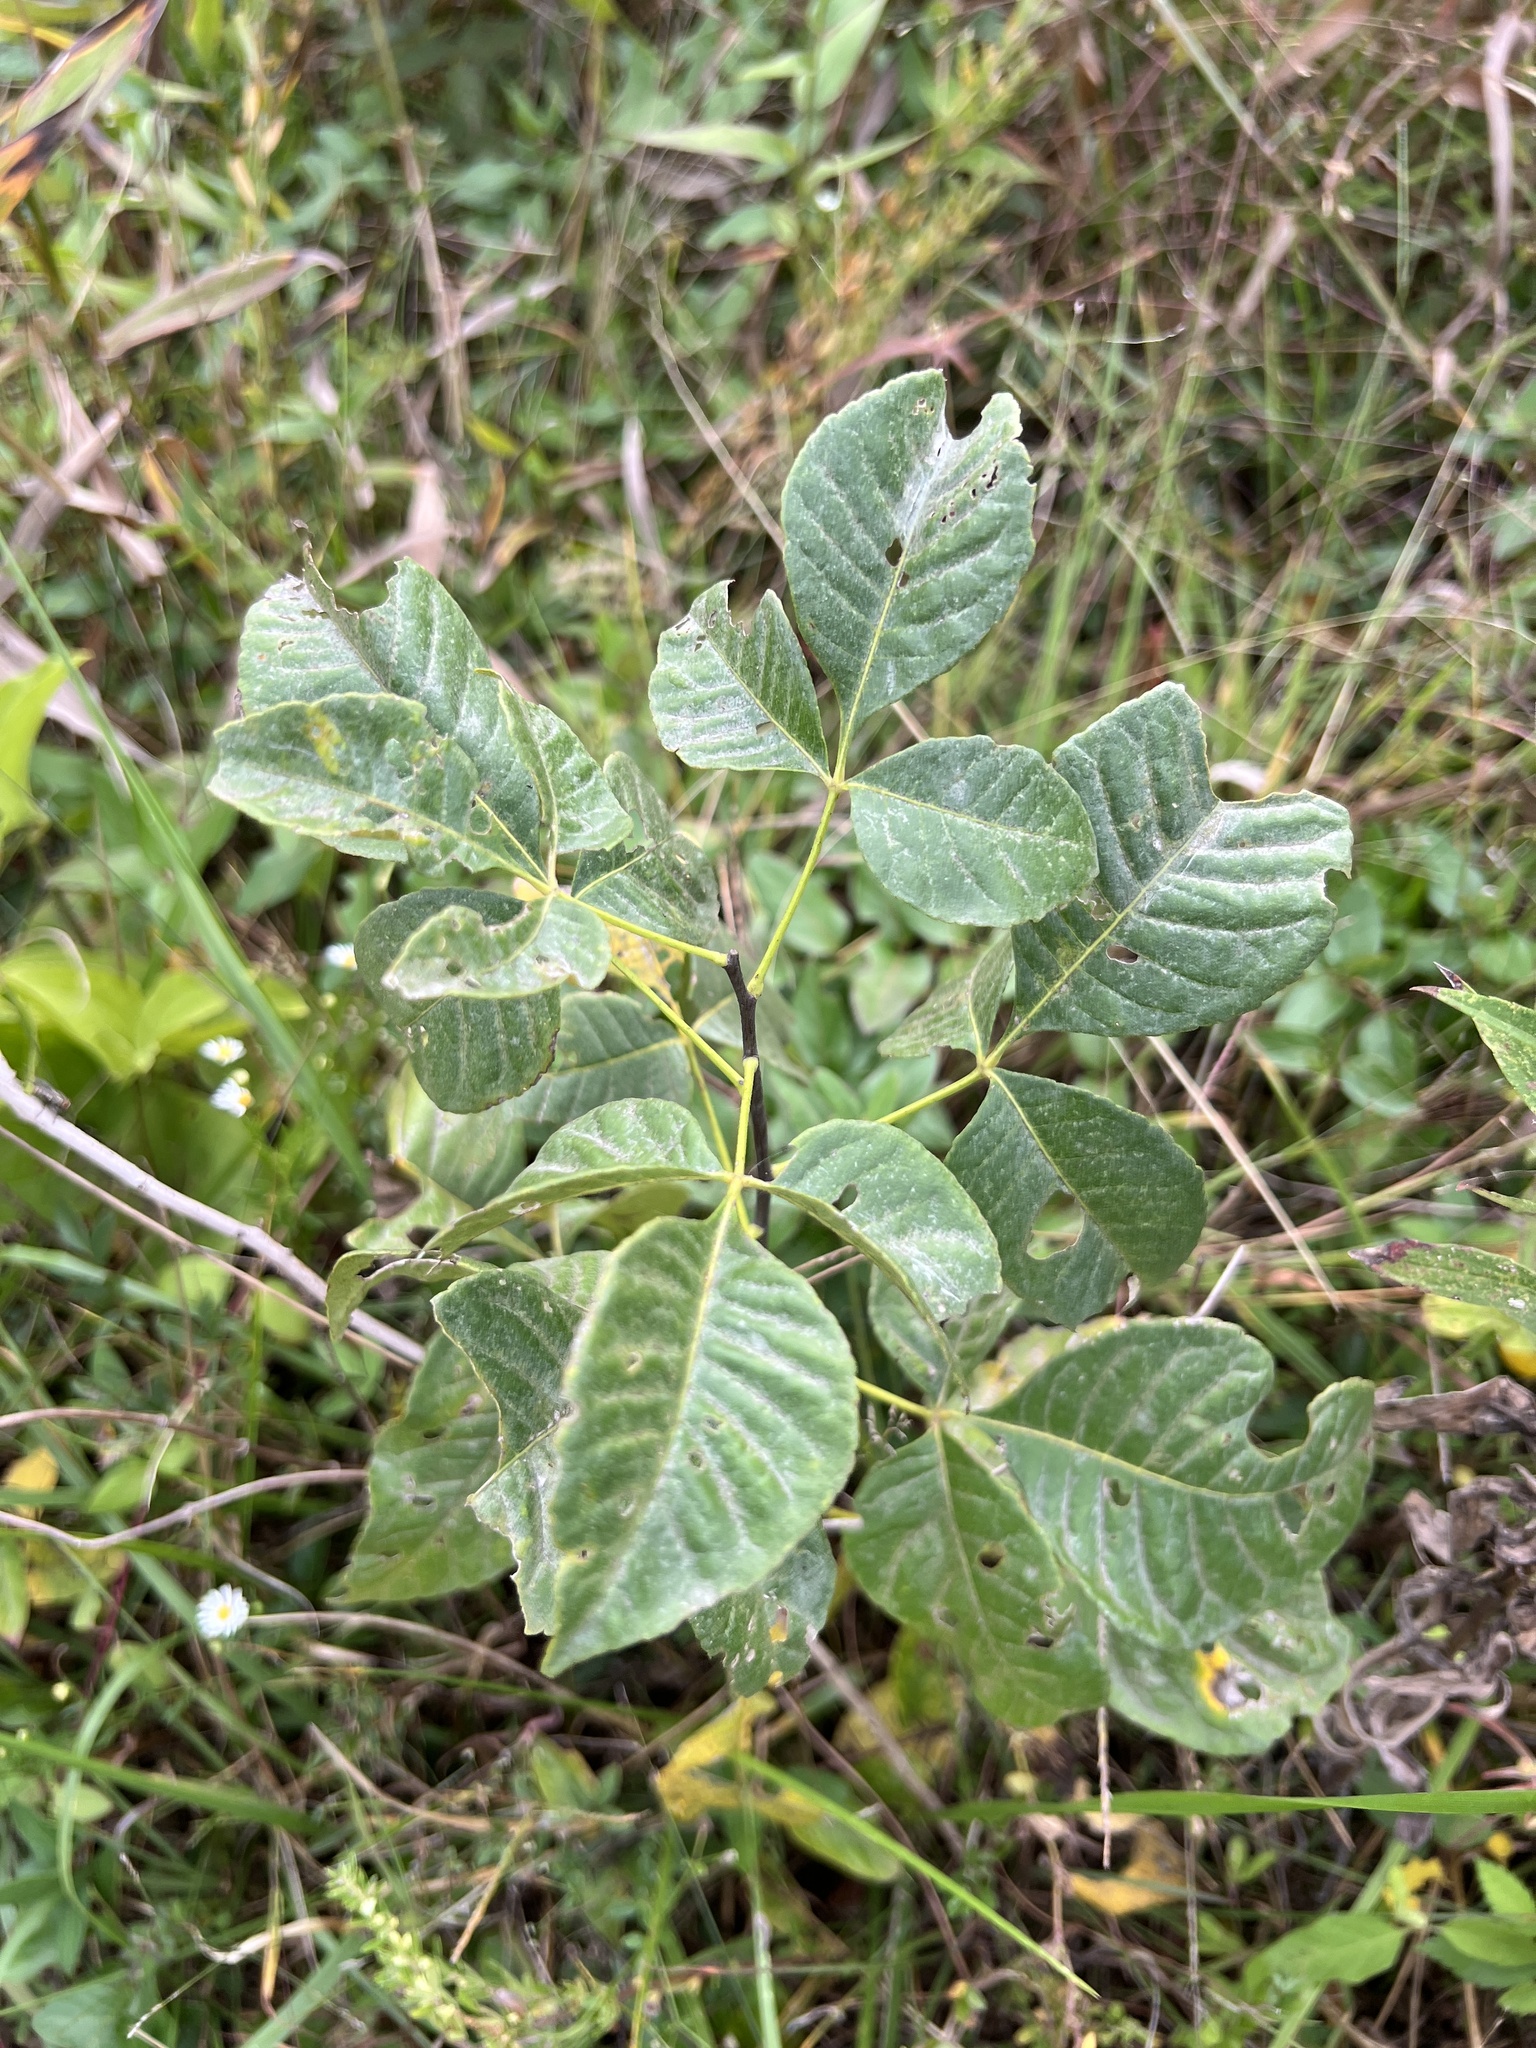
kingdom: Plantae
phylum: Tracheophyta
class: Magnoliopsida
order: Sapindales
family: Rutaceae
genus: Ptelea
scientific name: Ptelea trifoliata
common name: Common hop-tree
